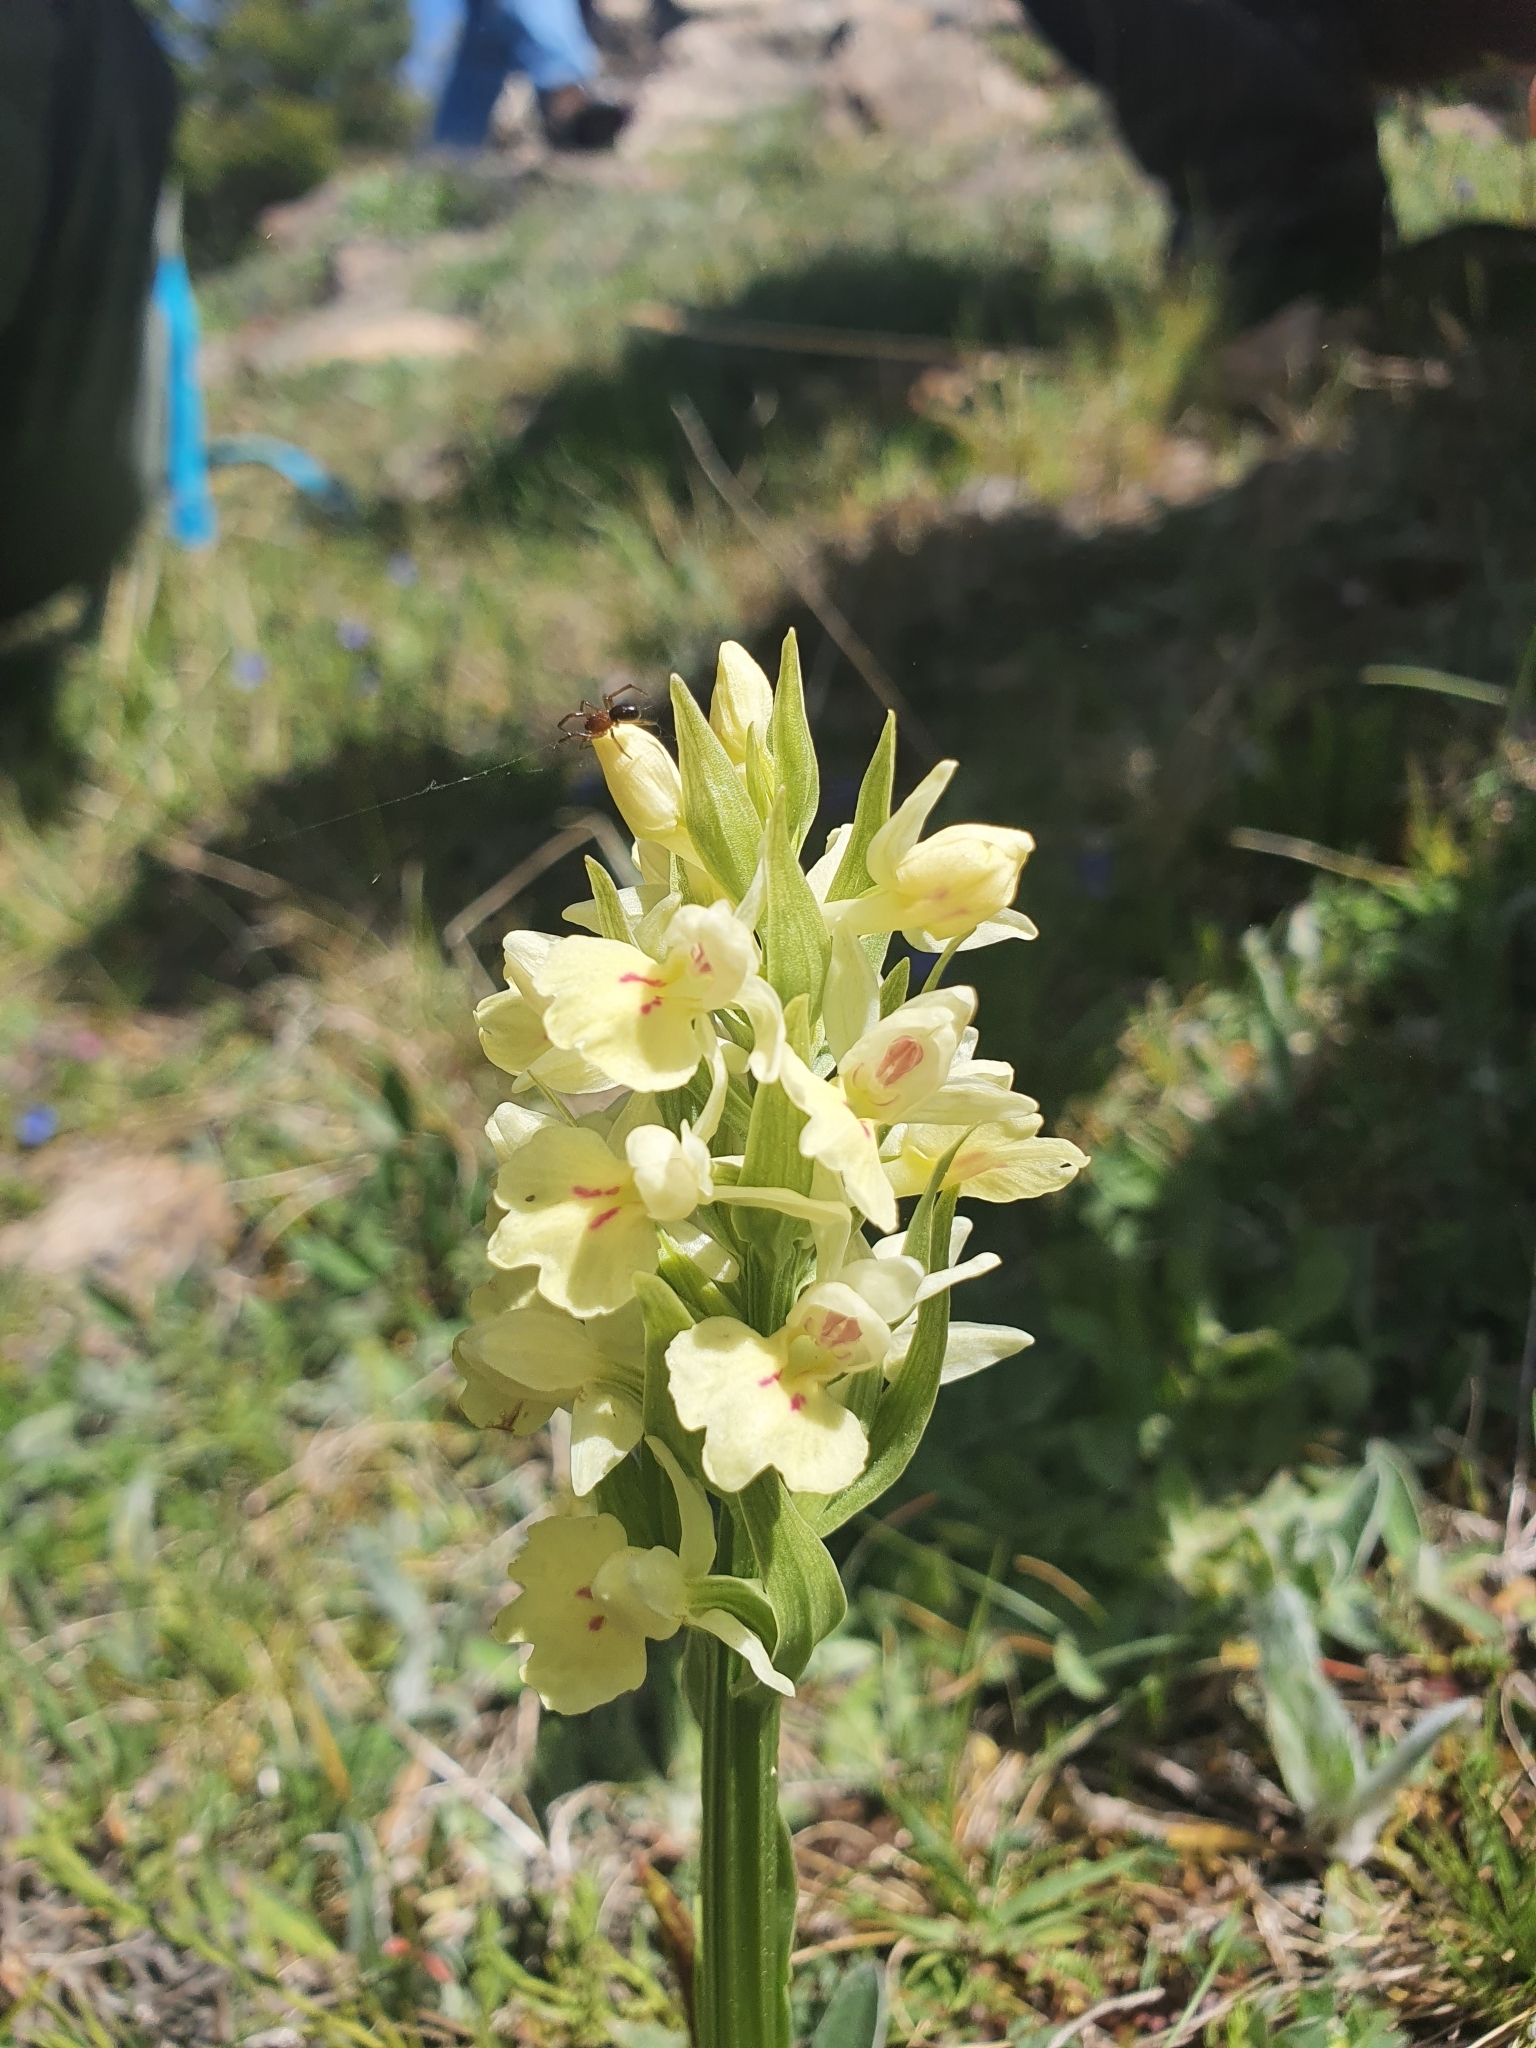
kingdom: Plantae
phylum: Tracheophyta
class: Liliopsida
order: Asparagales
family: Orchidaceae
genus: Dactylorhiza
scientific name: Dactylorhiza insularis
